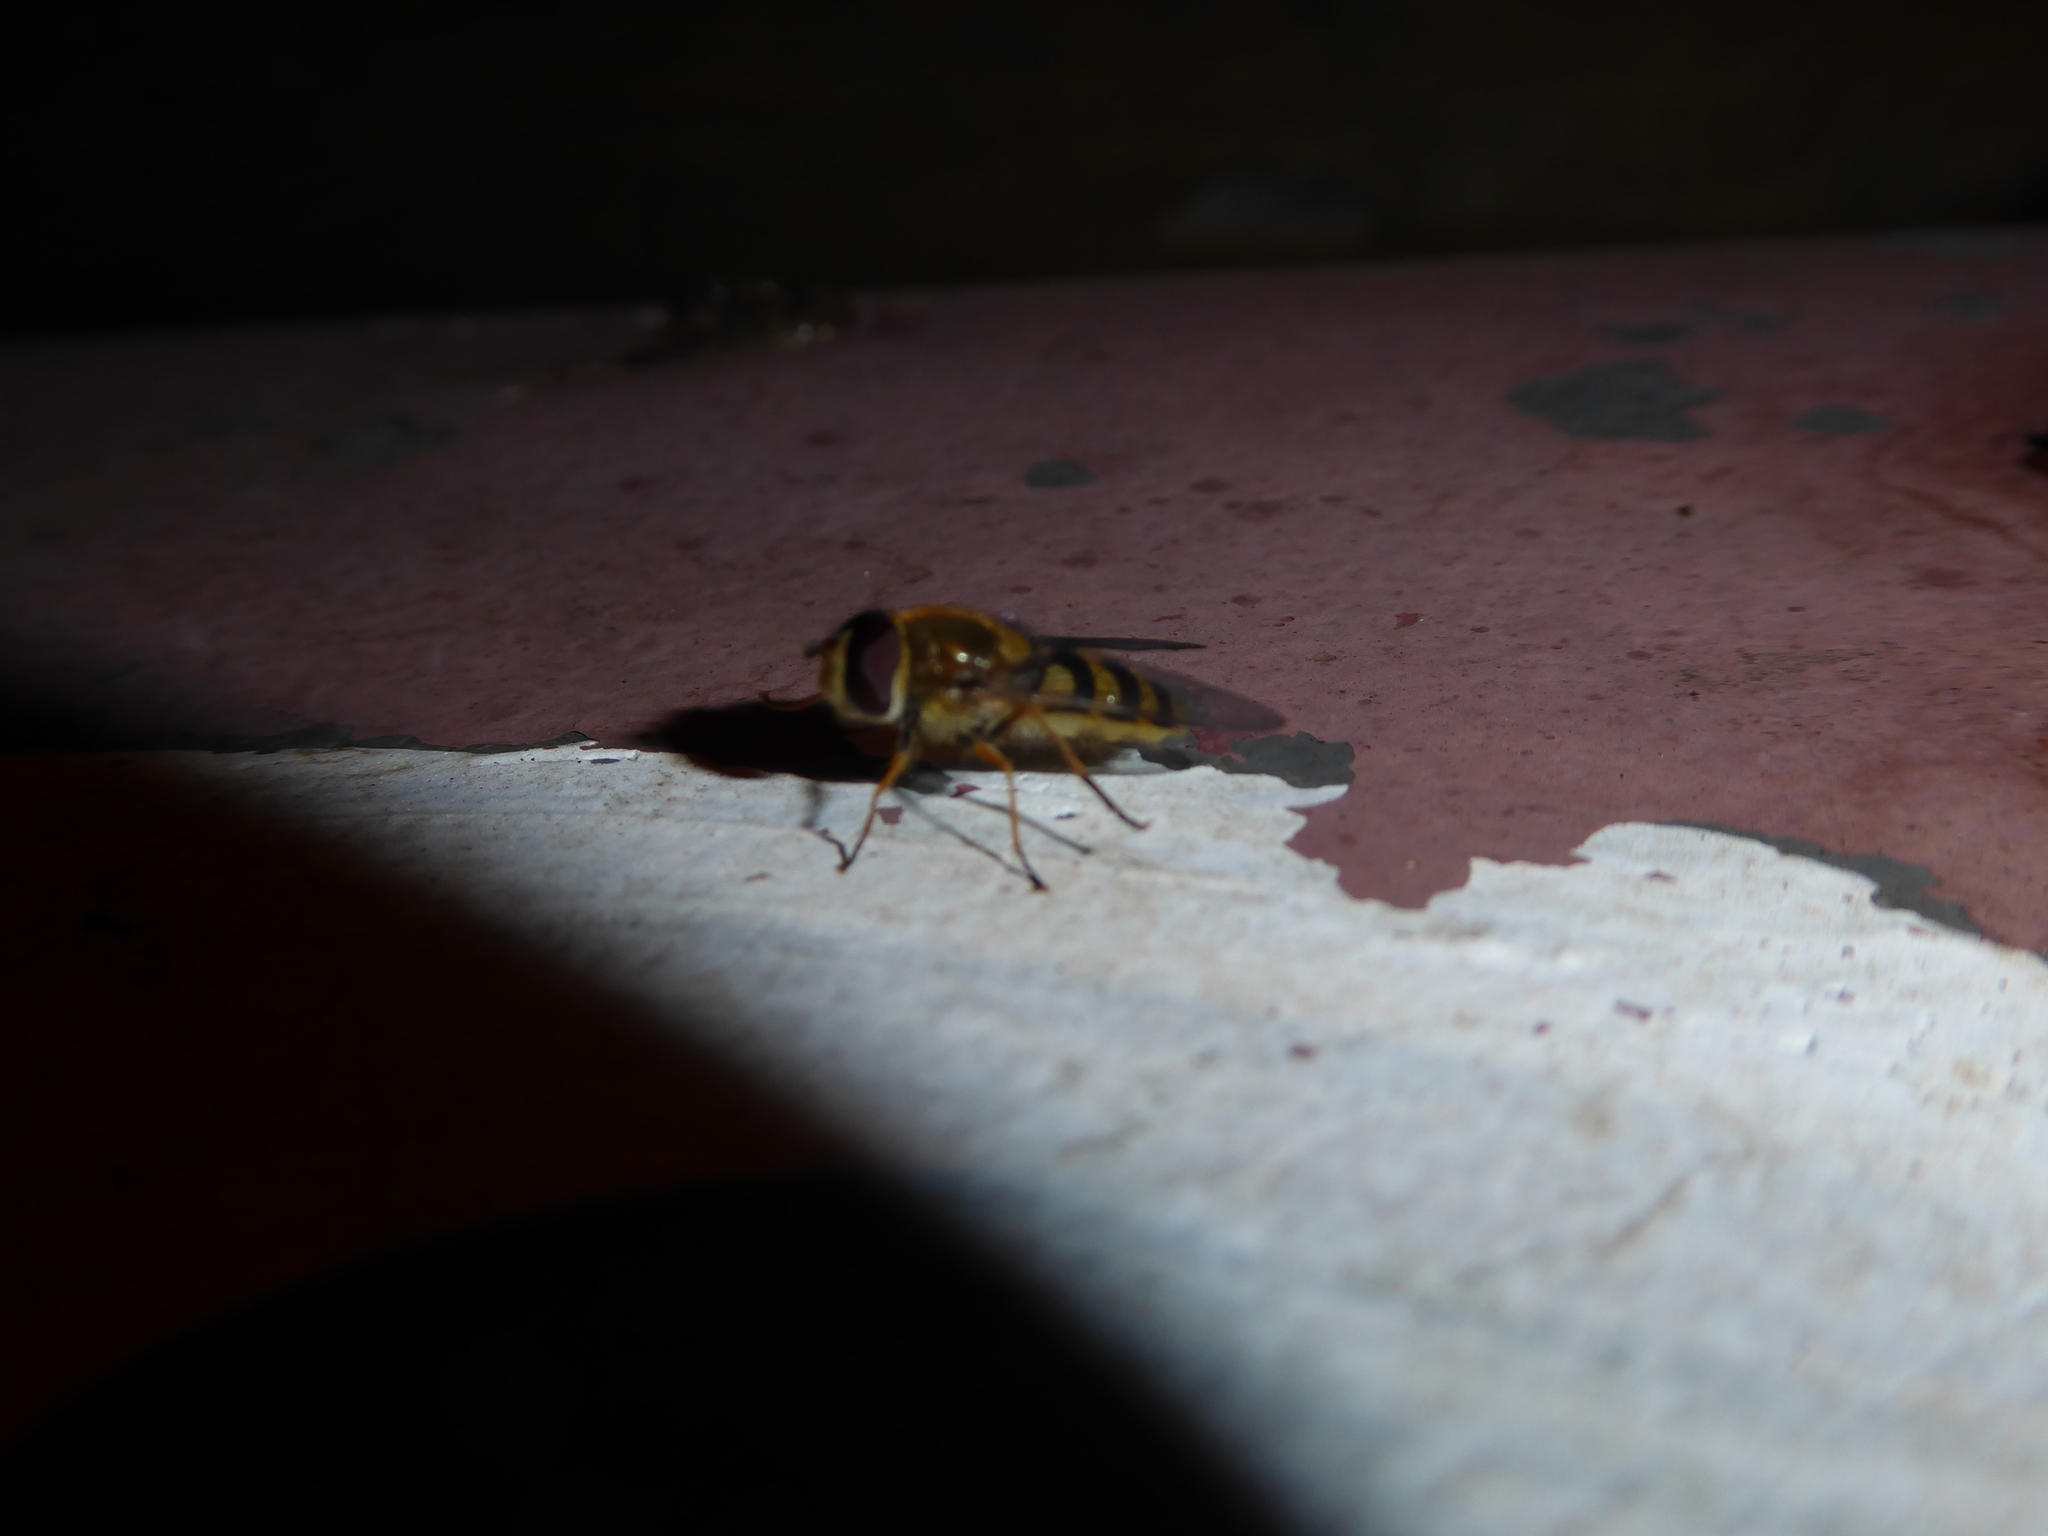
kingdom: Animalia
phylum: Arthropoda
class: Insecta
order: Diptera
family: Syrphidae
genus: Syrphus
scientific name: Syrphus
